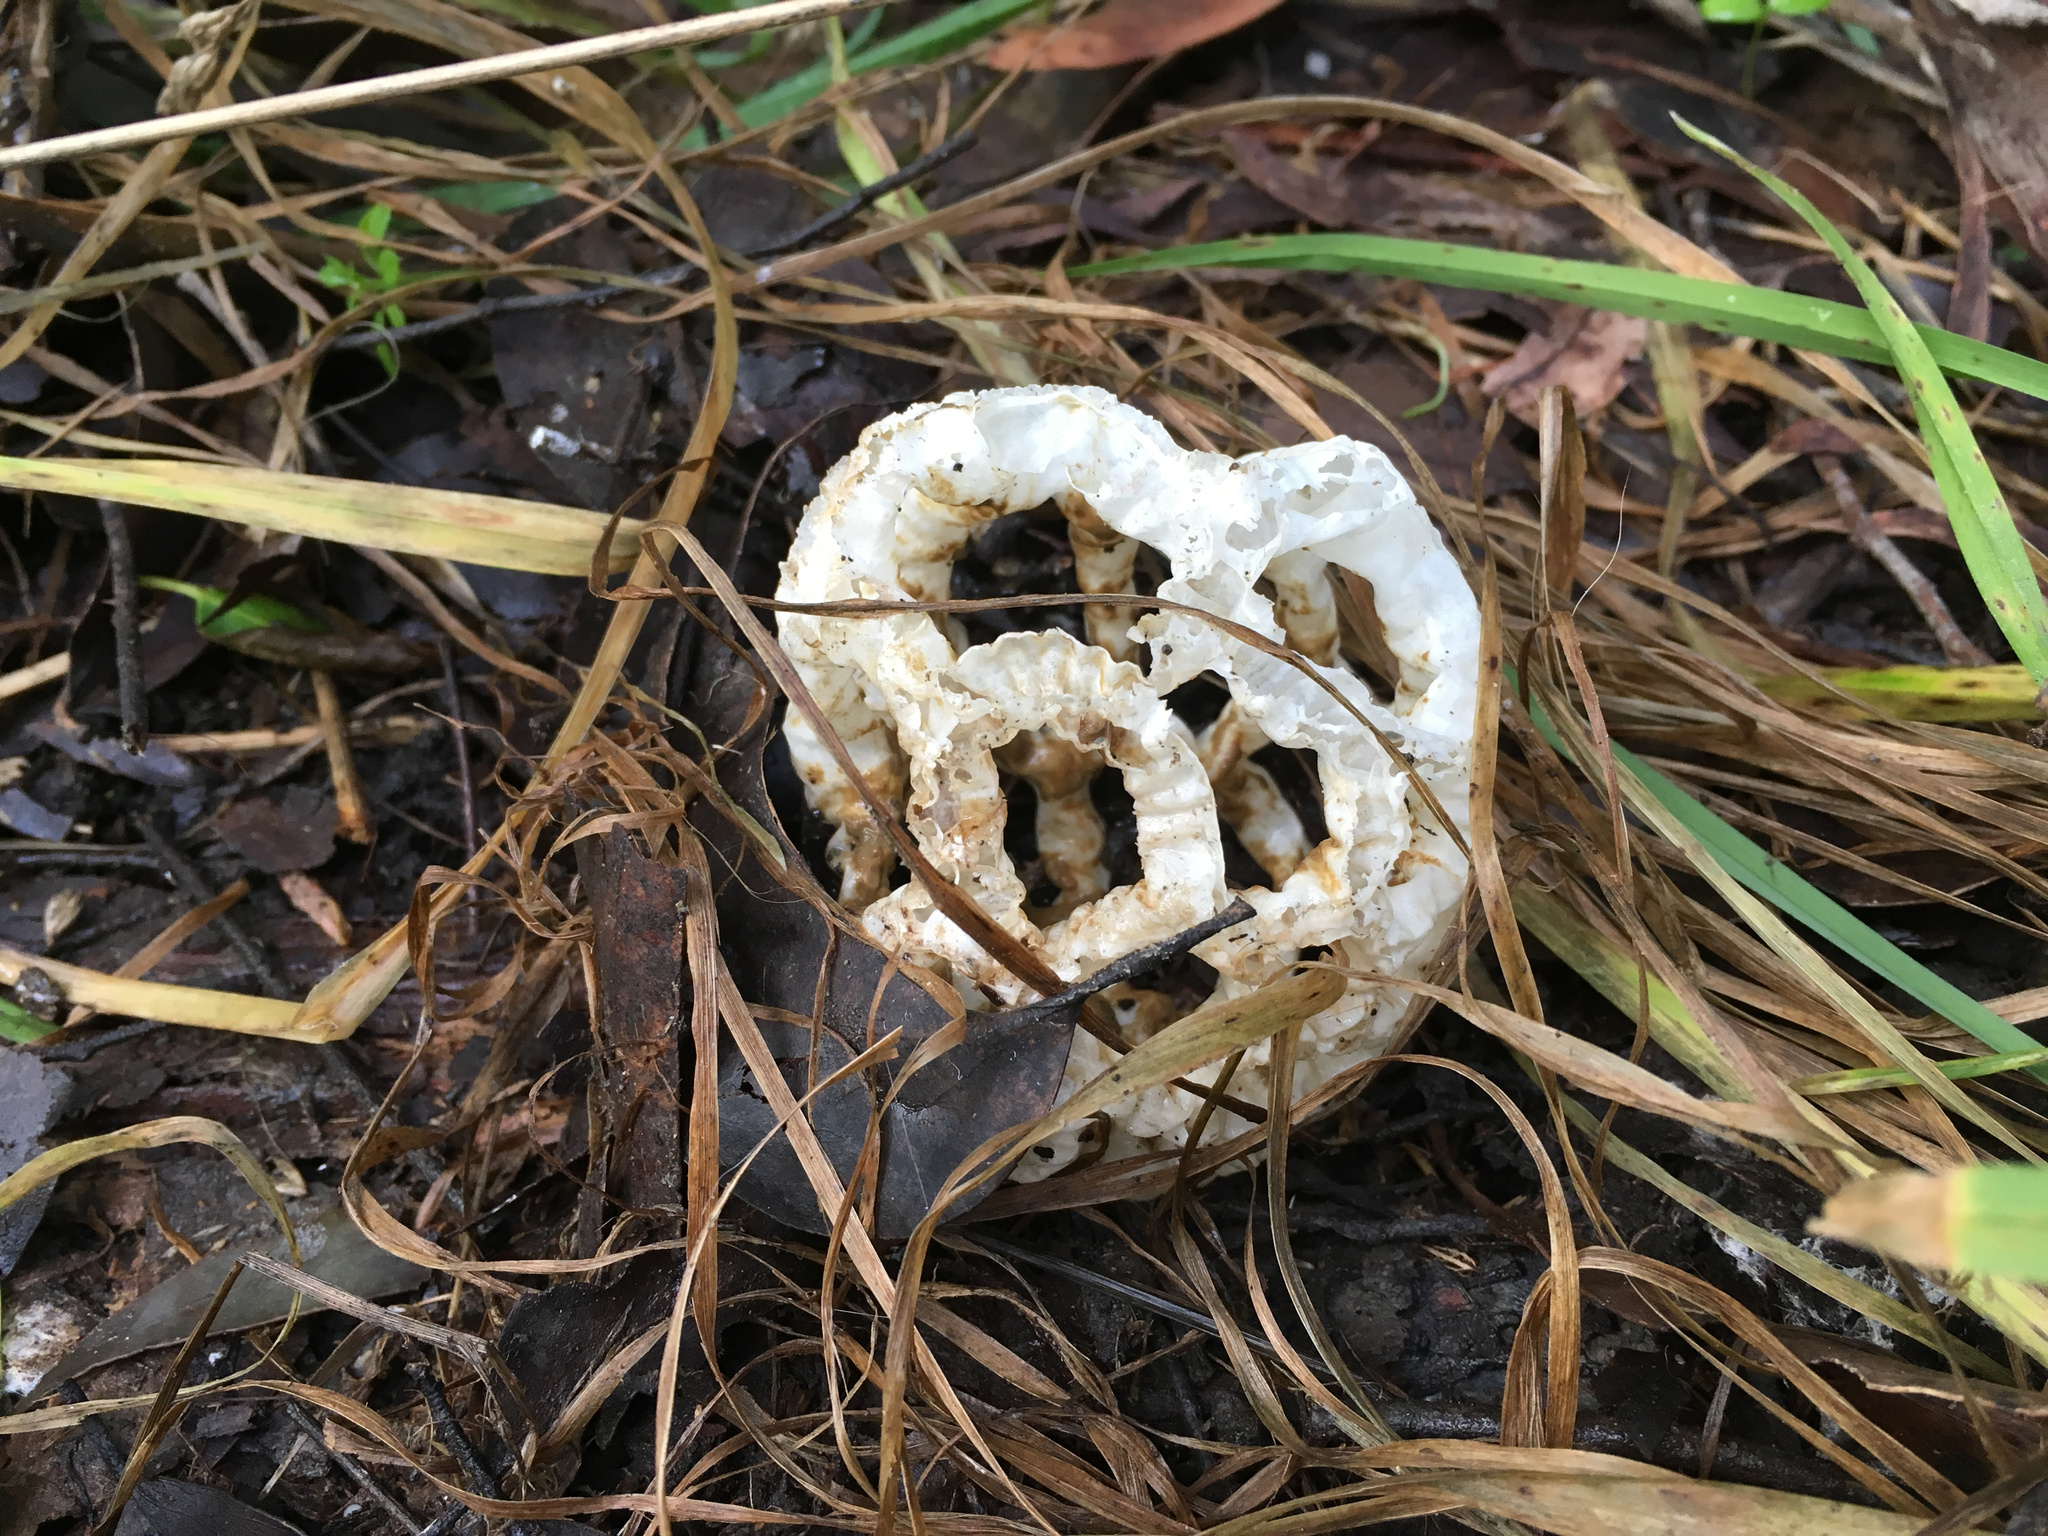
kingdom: Fungi
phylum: Basidiomycota
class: Agaricomycetes
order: Phallales
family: Phallaceae
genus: Ileodictyon
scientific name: Ileodictyon cibarium
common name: Basket fungus
